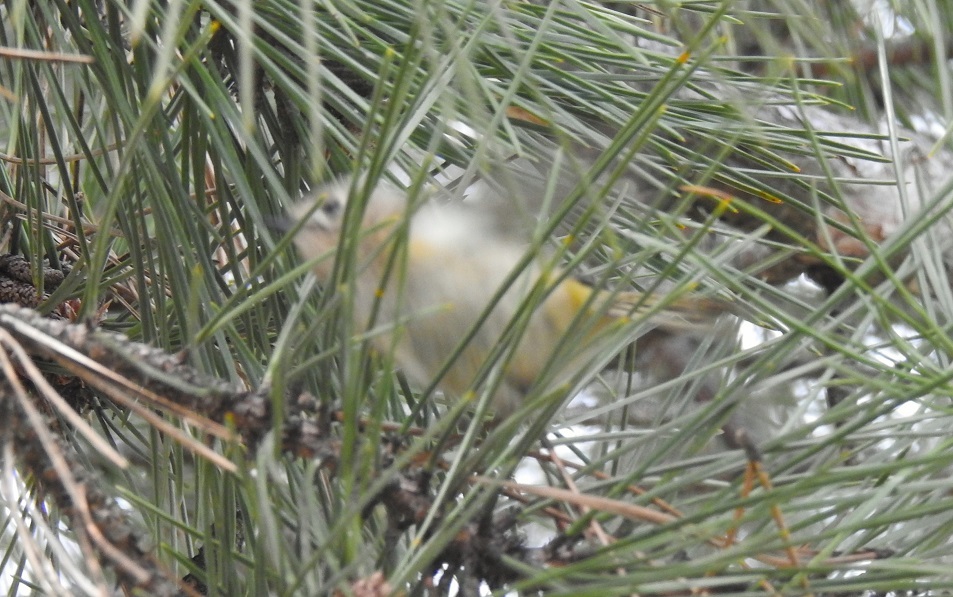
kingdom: Animalia
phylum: Chordata
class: Aves
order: Passeriformes
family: Regulidae
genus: Regulus
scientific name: Regulus regulus
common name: Goldcrest
